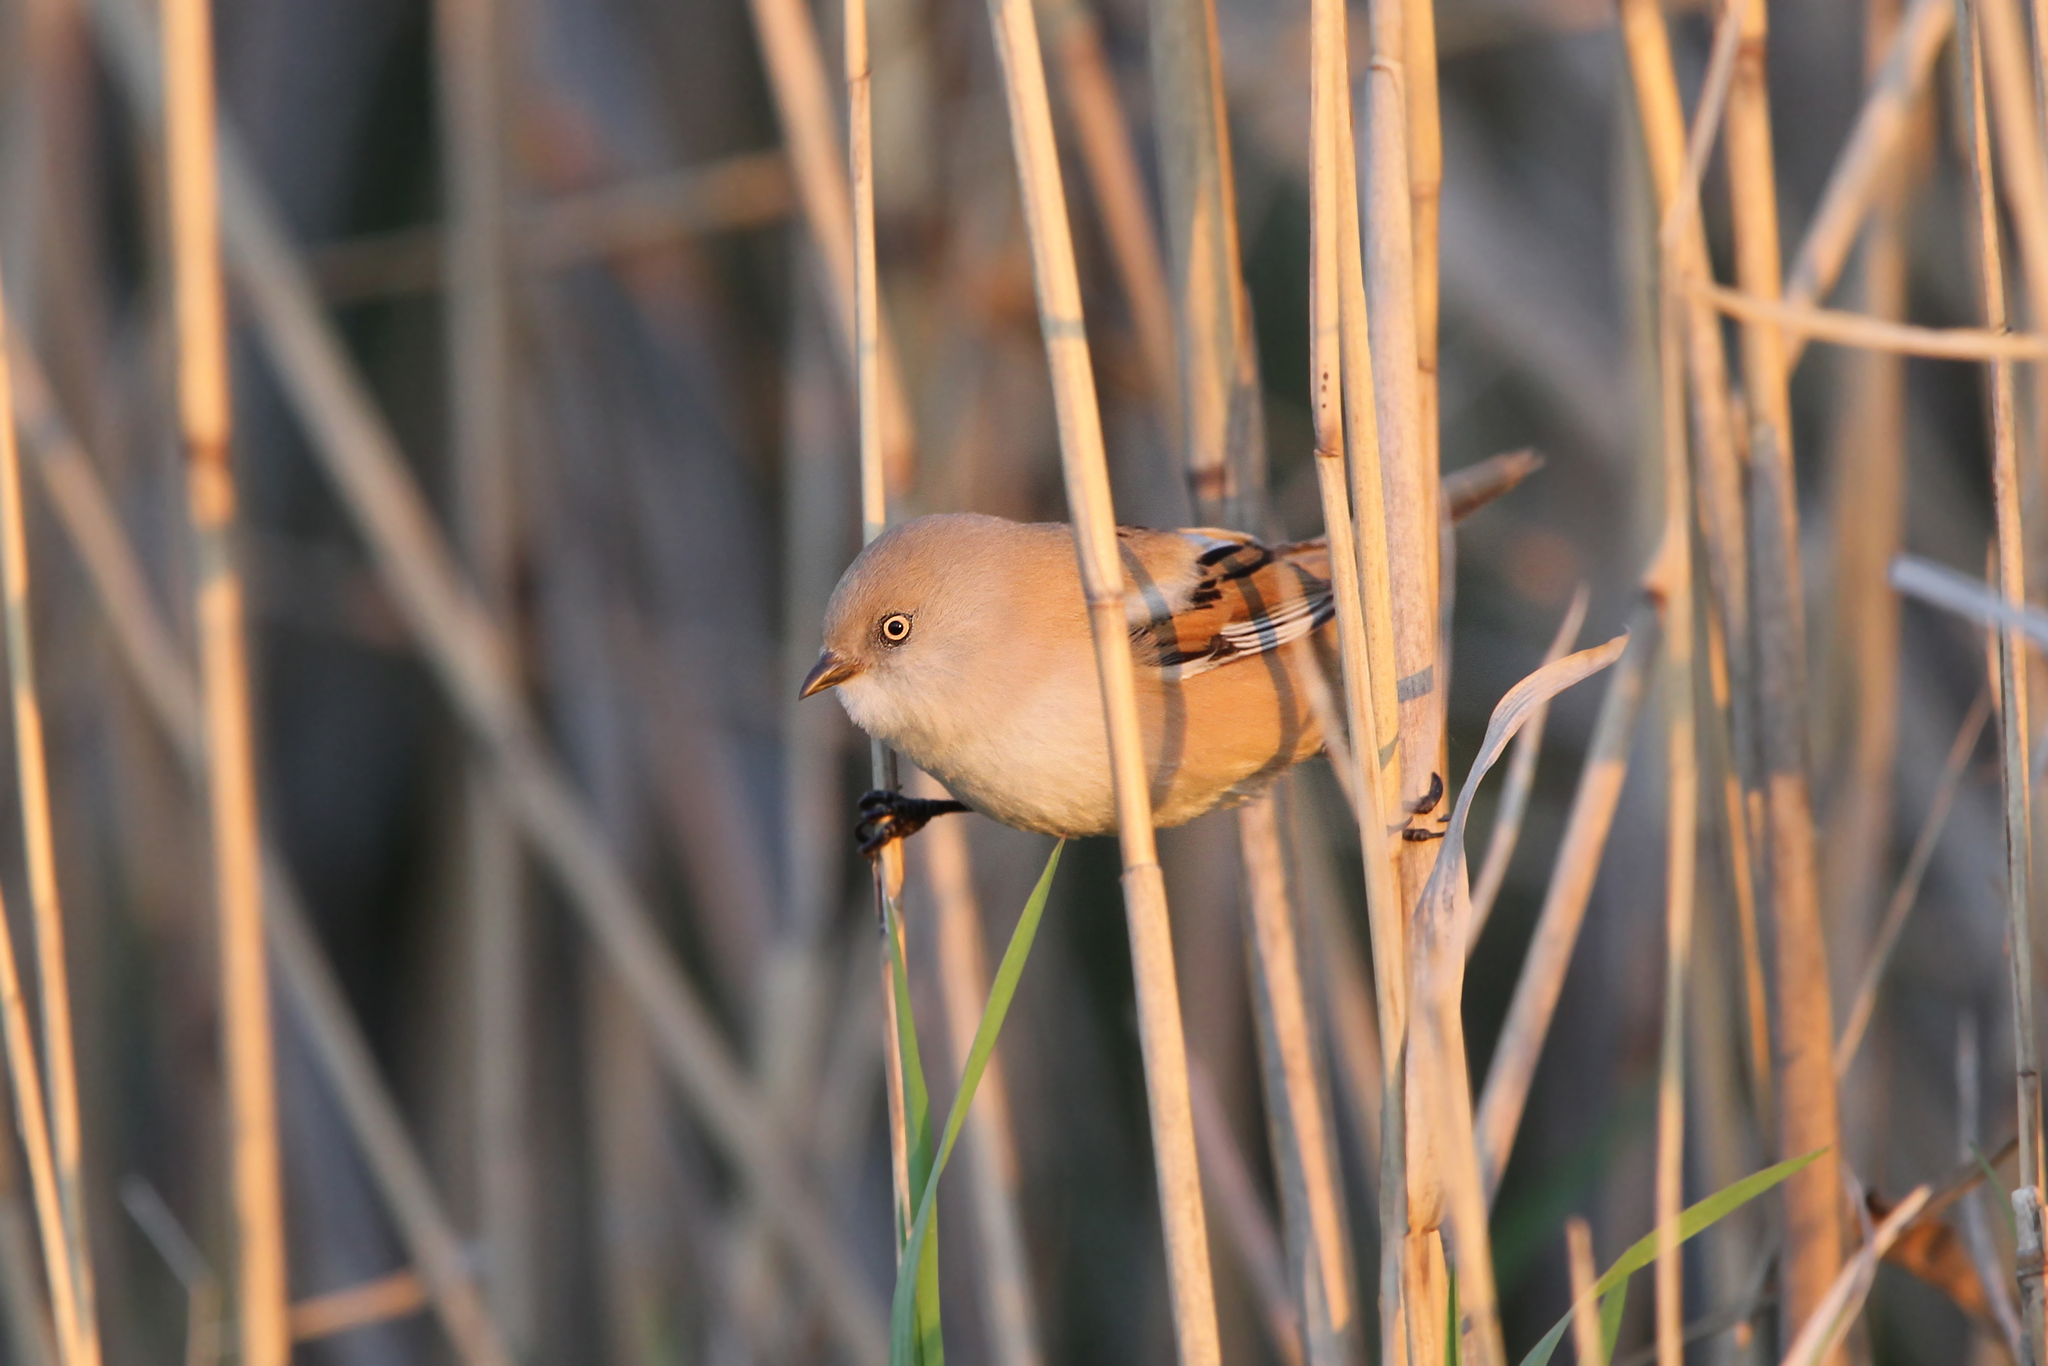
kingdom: Animalia
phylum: Chordata
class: Aves
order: Passeriformes
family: Panuridae
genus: Panurus
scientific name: Panurus biarmicus
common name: Bearded reedling
